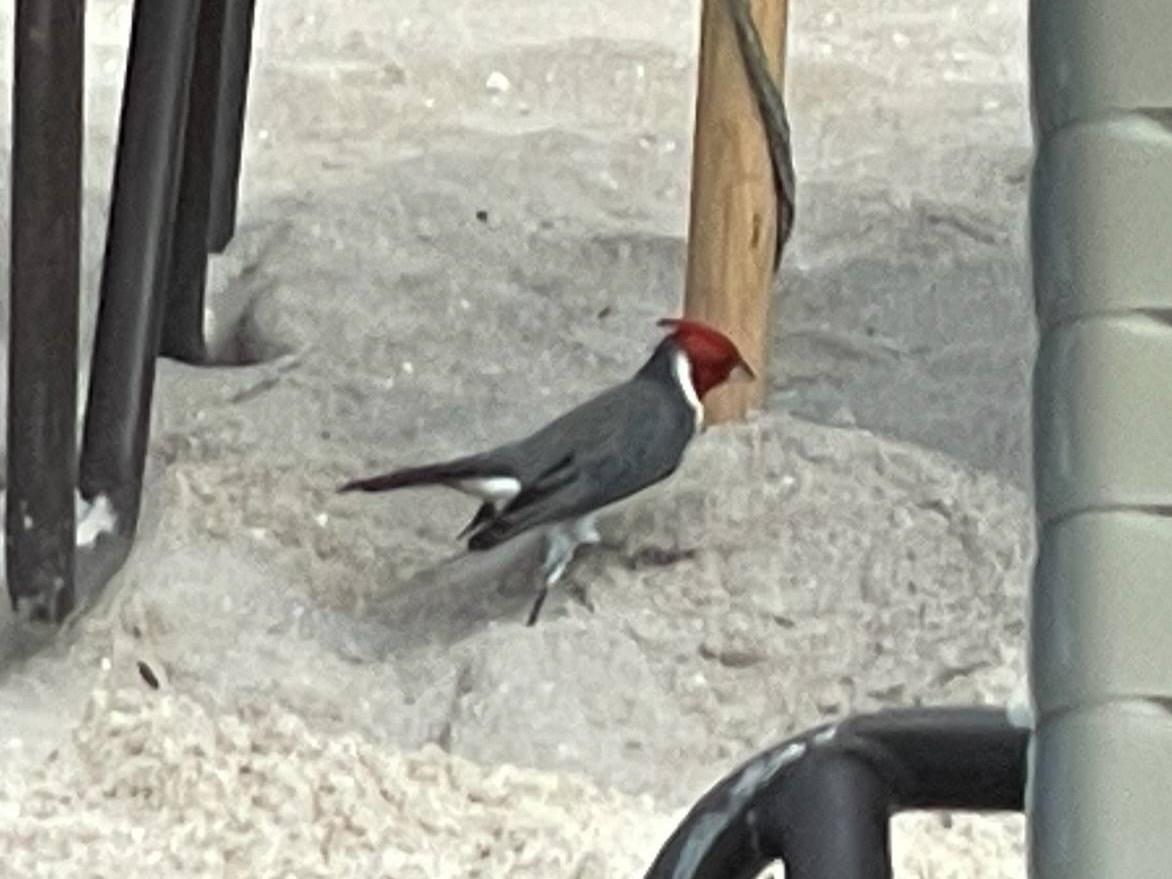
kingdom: Animalia
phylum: Chordata
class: Aves
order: Passeriformes
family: Thraupidae
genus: Paroaria
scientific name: Paroaria coronata
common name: Red-crested cardinal
